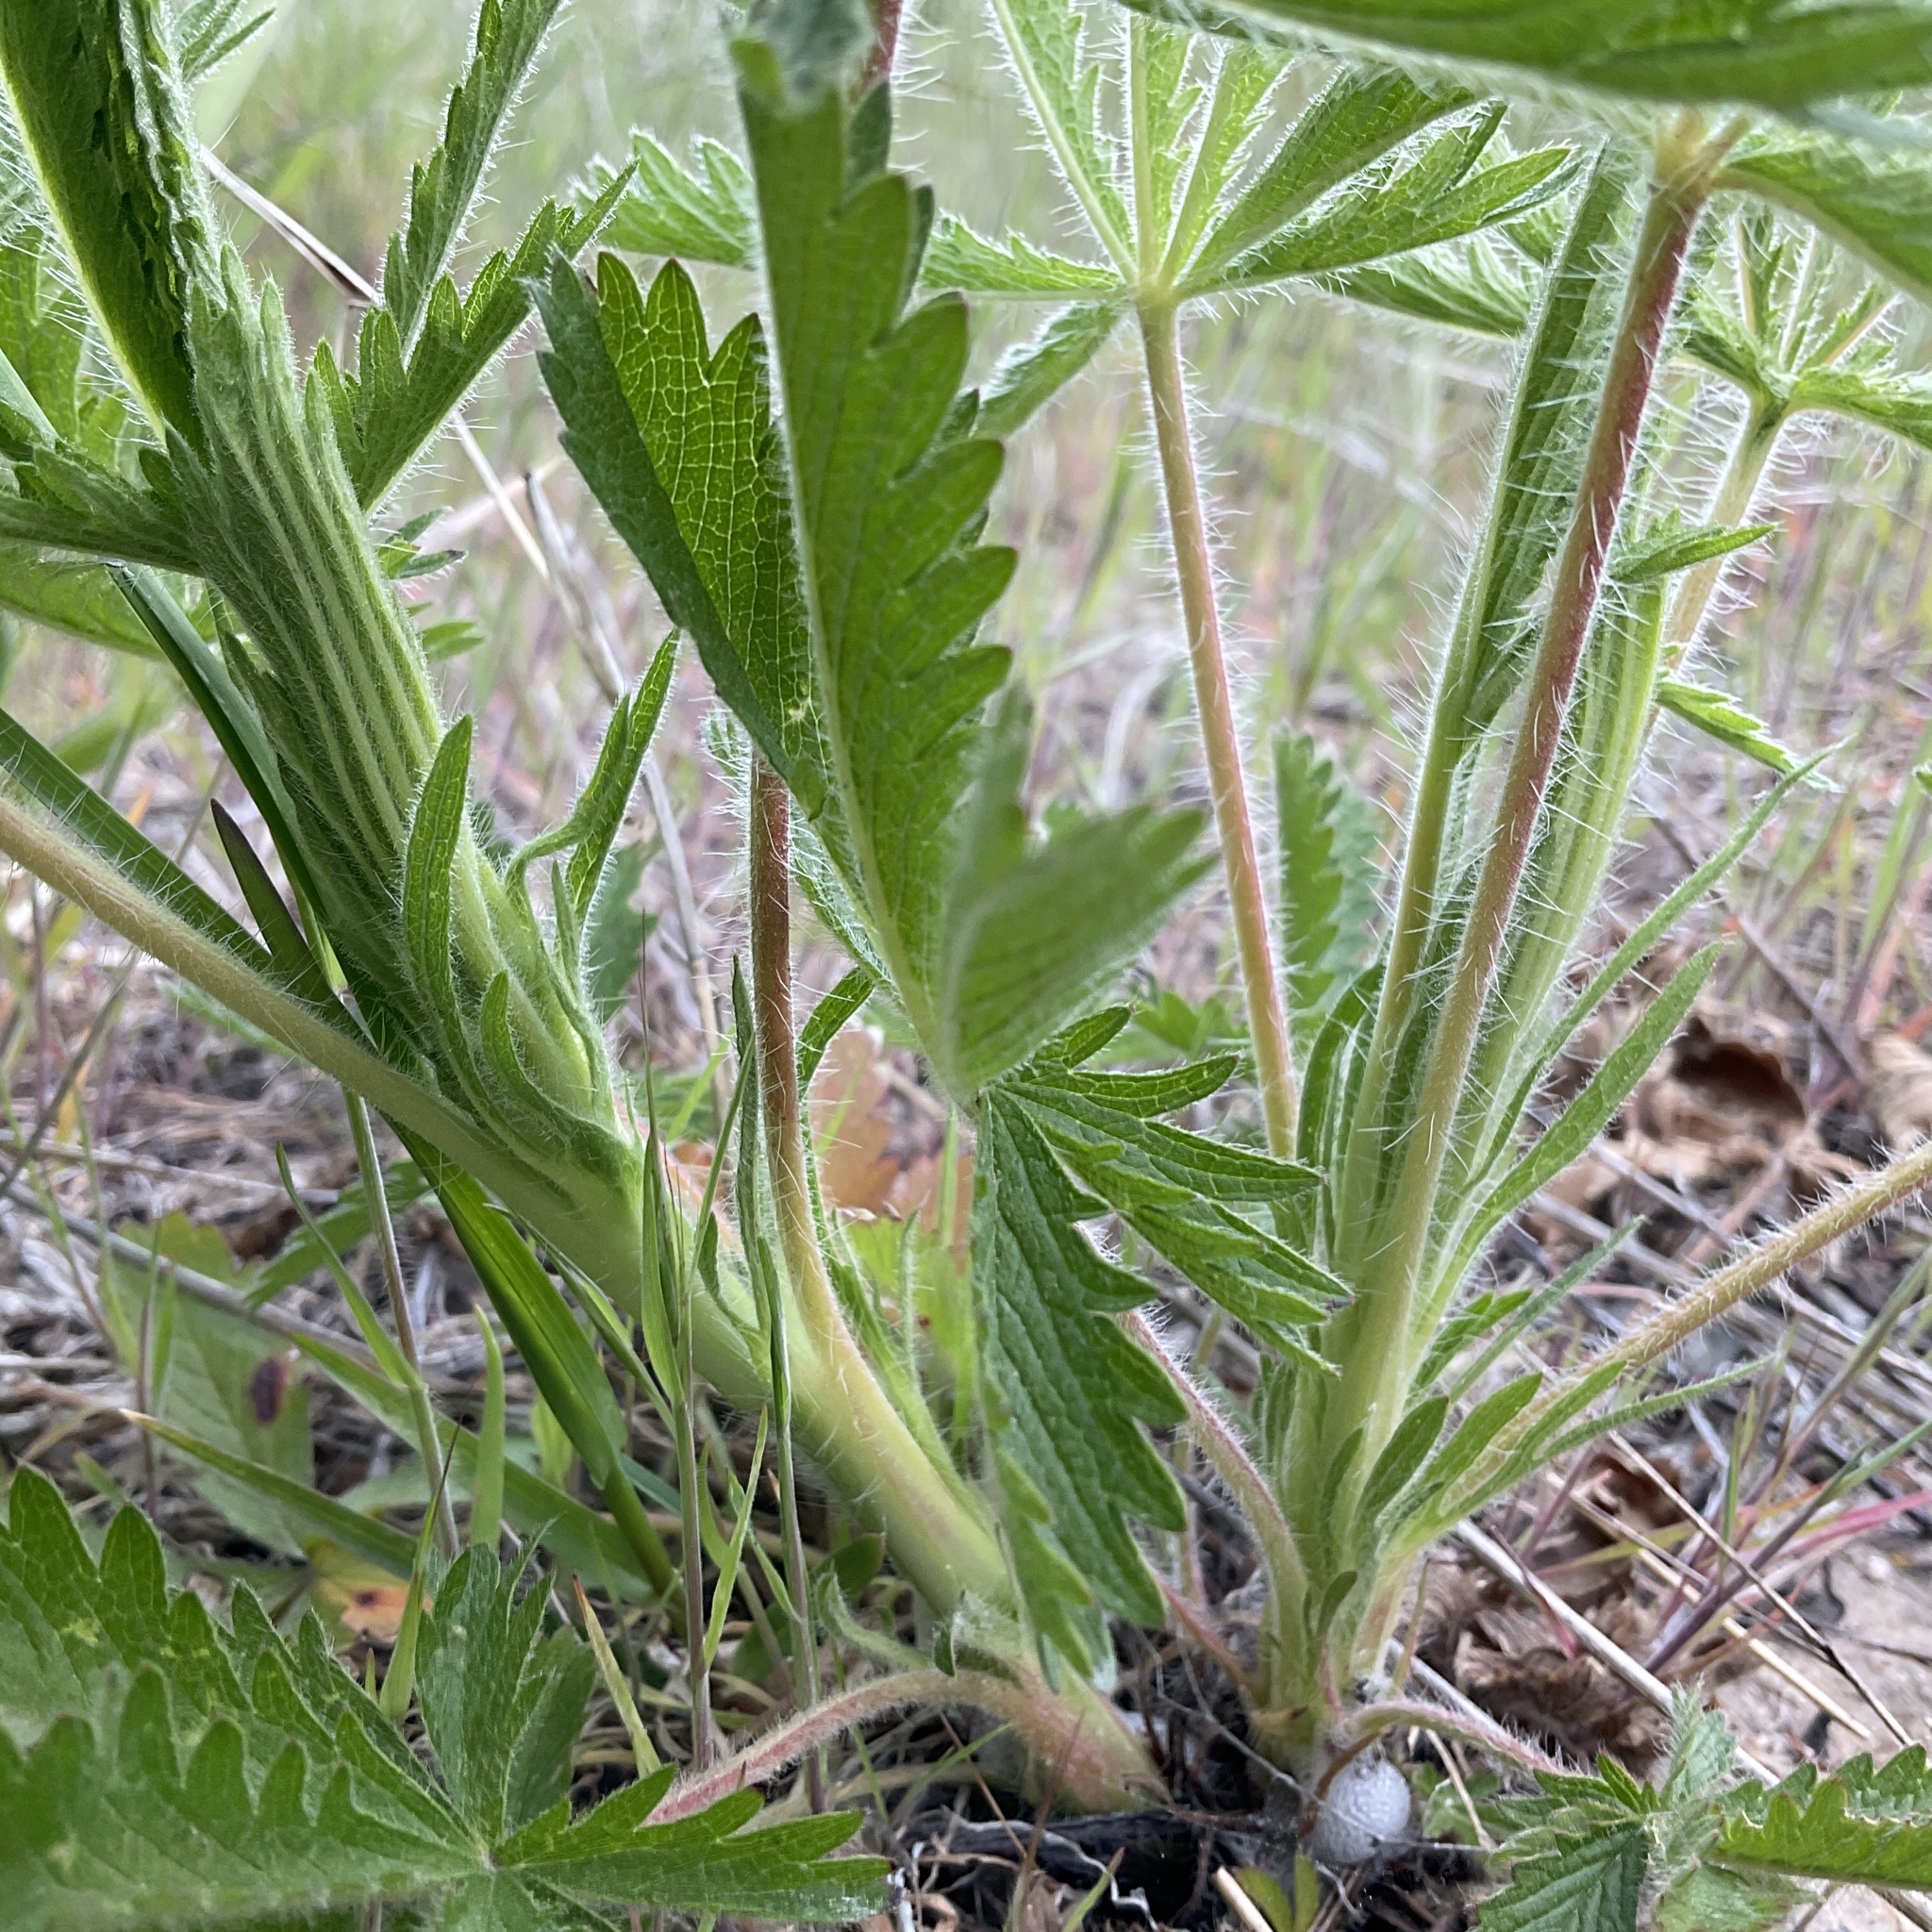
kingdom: Plantae
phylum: Tracheophyta
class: Magnoliopsida
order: Rosales
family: Rosaceae
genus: Potentilla
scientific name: Potentilla recta
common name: Sulphur cinquefoil
